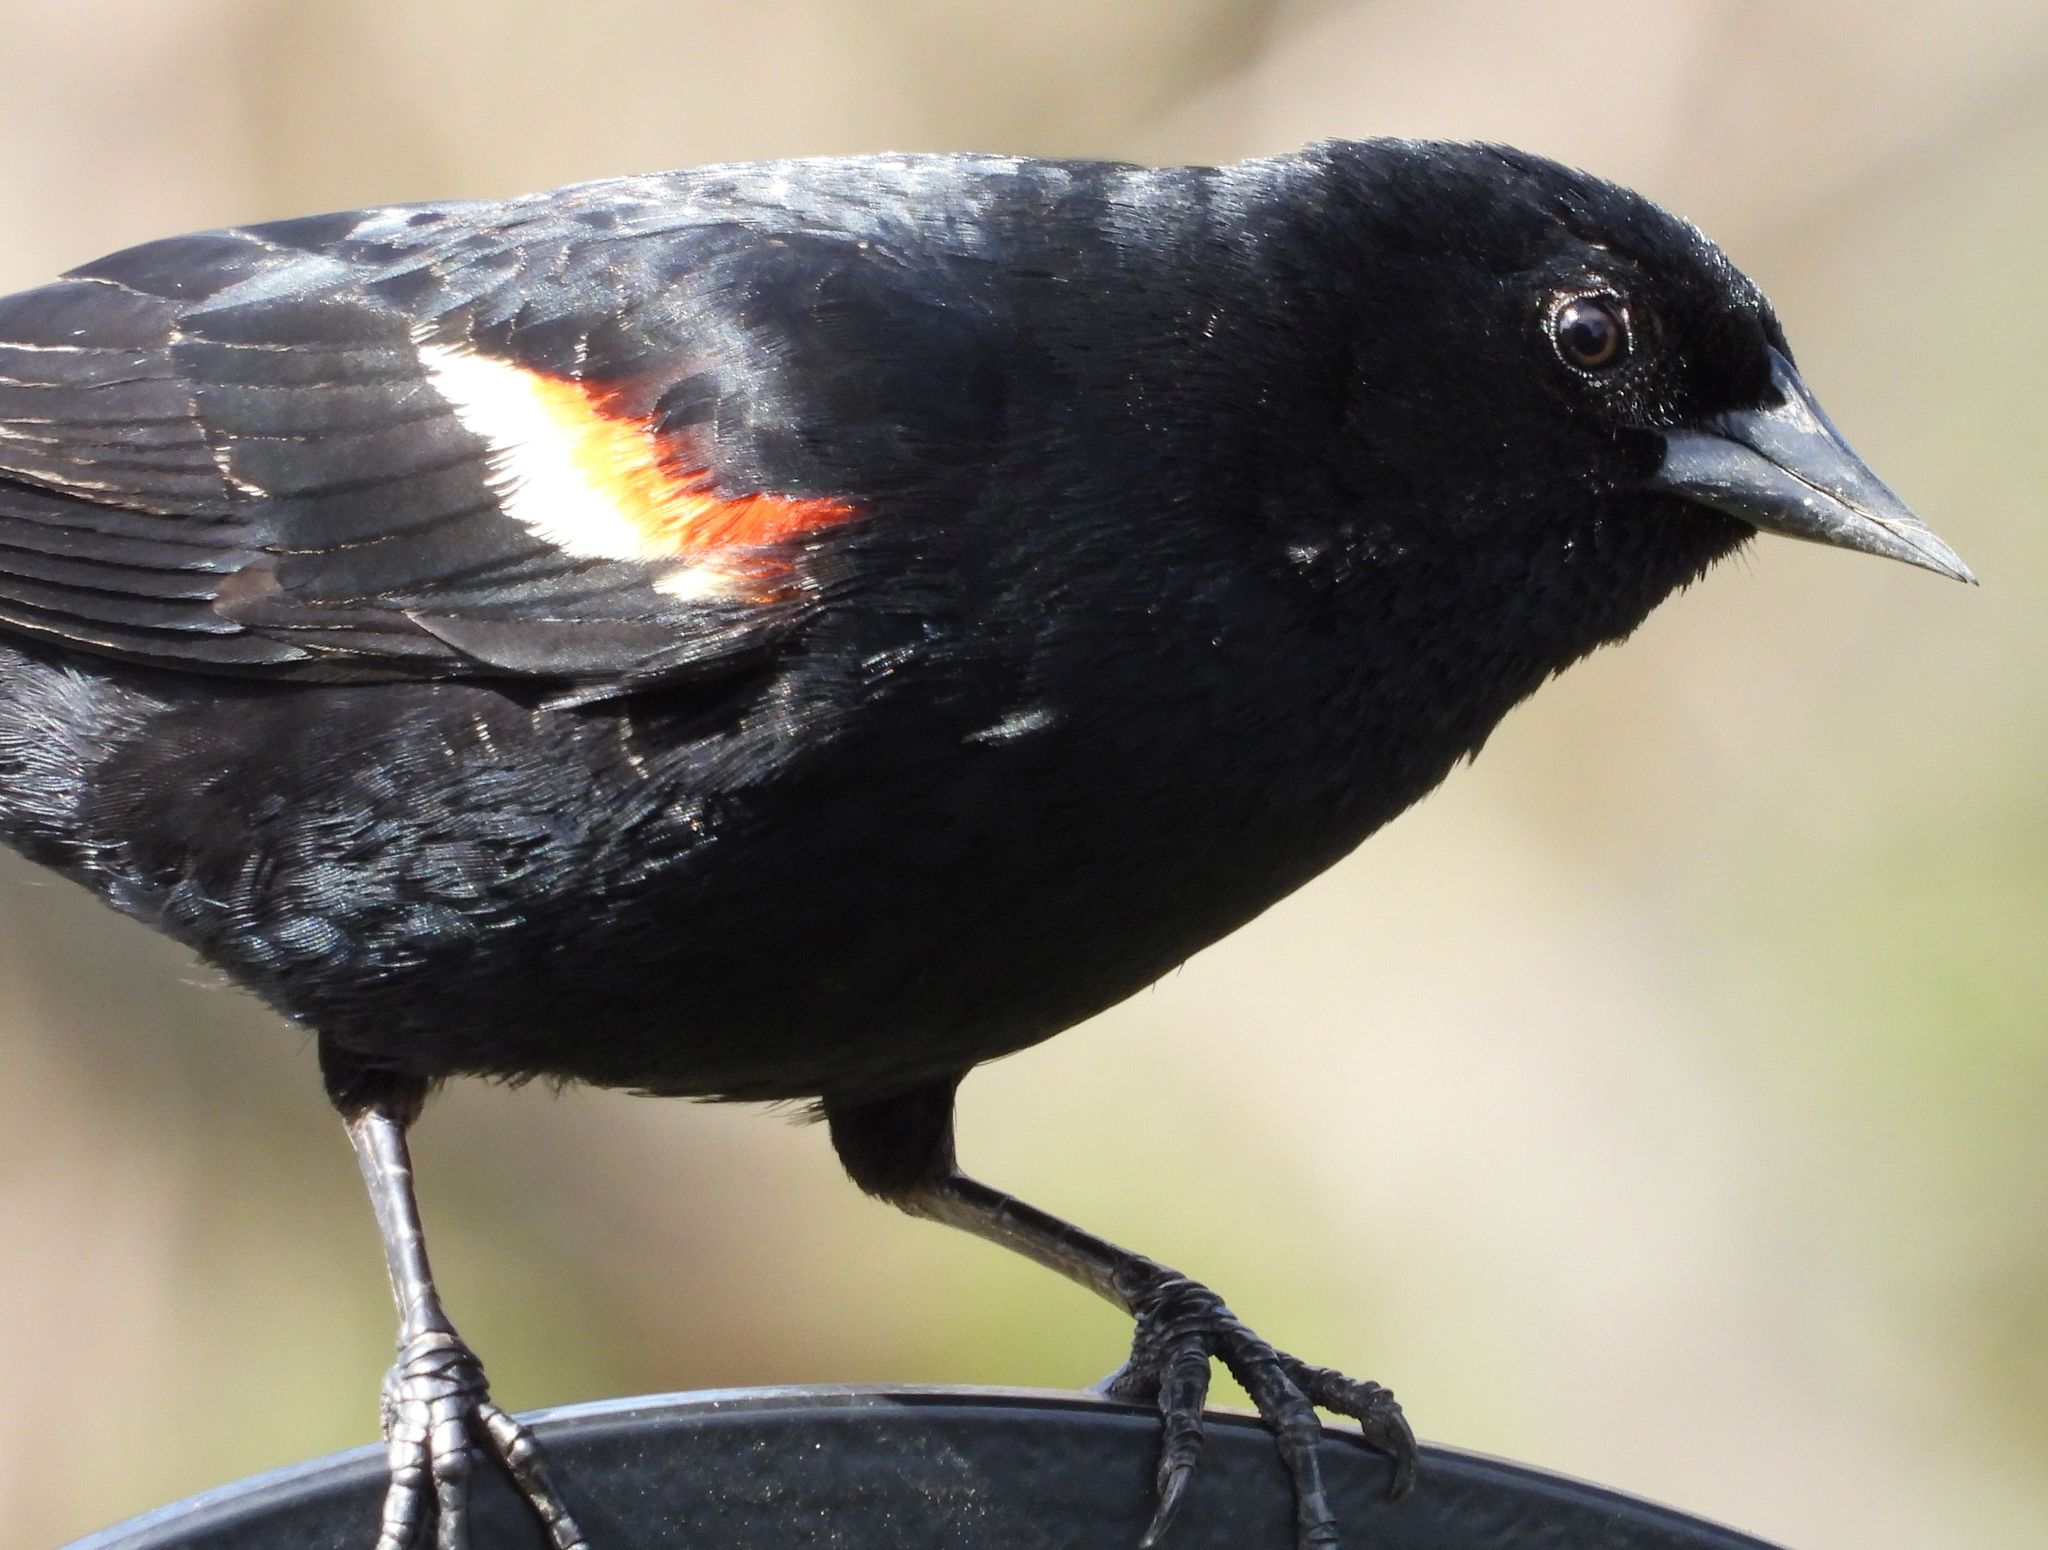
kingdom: Animalia
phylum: Chordata
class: Aves
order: Passeriformes
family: Icteridae
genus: Agelaius
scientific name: Agelaius phoeniceus
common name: Red-winged blackbird
